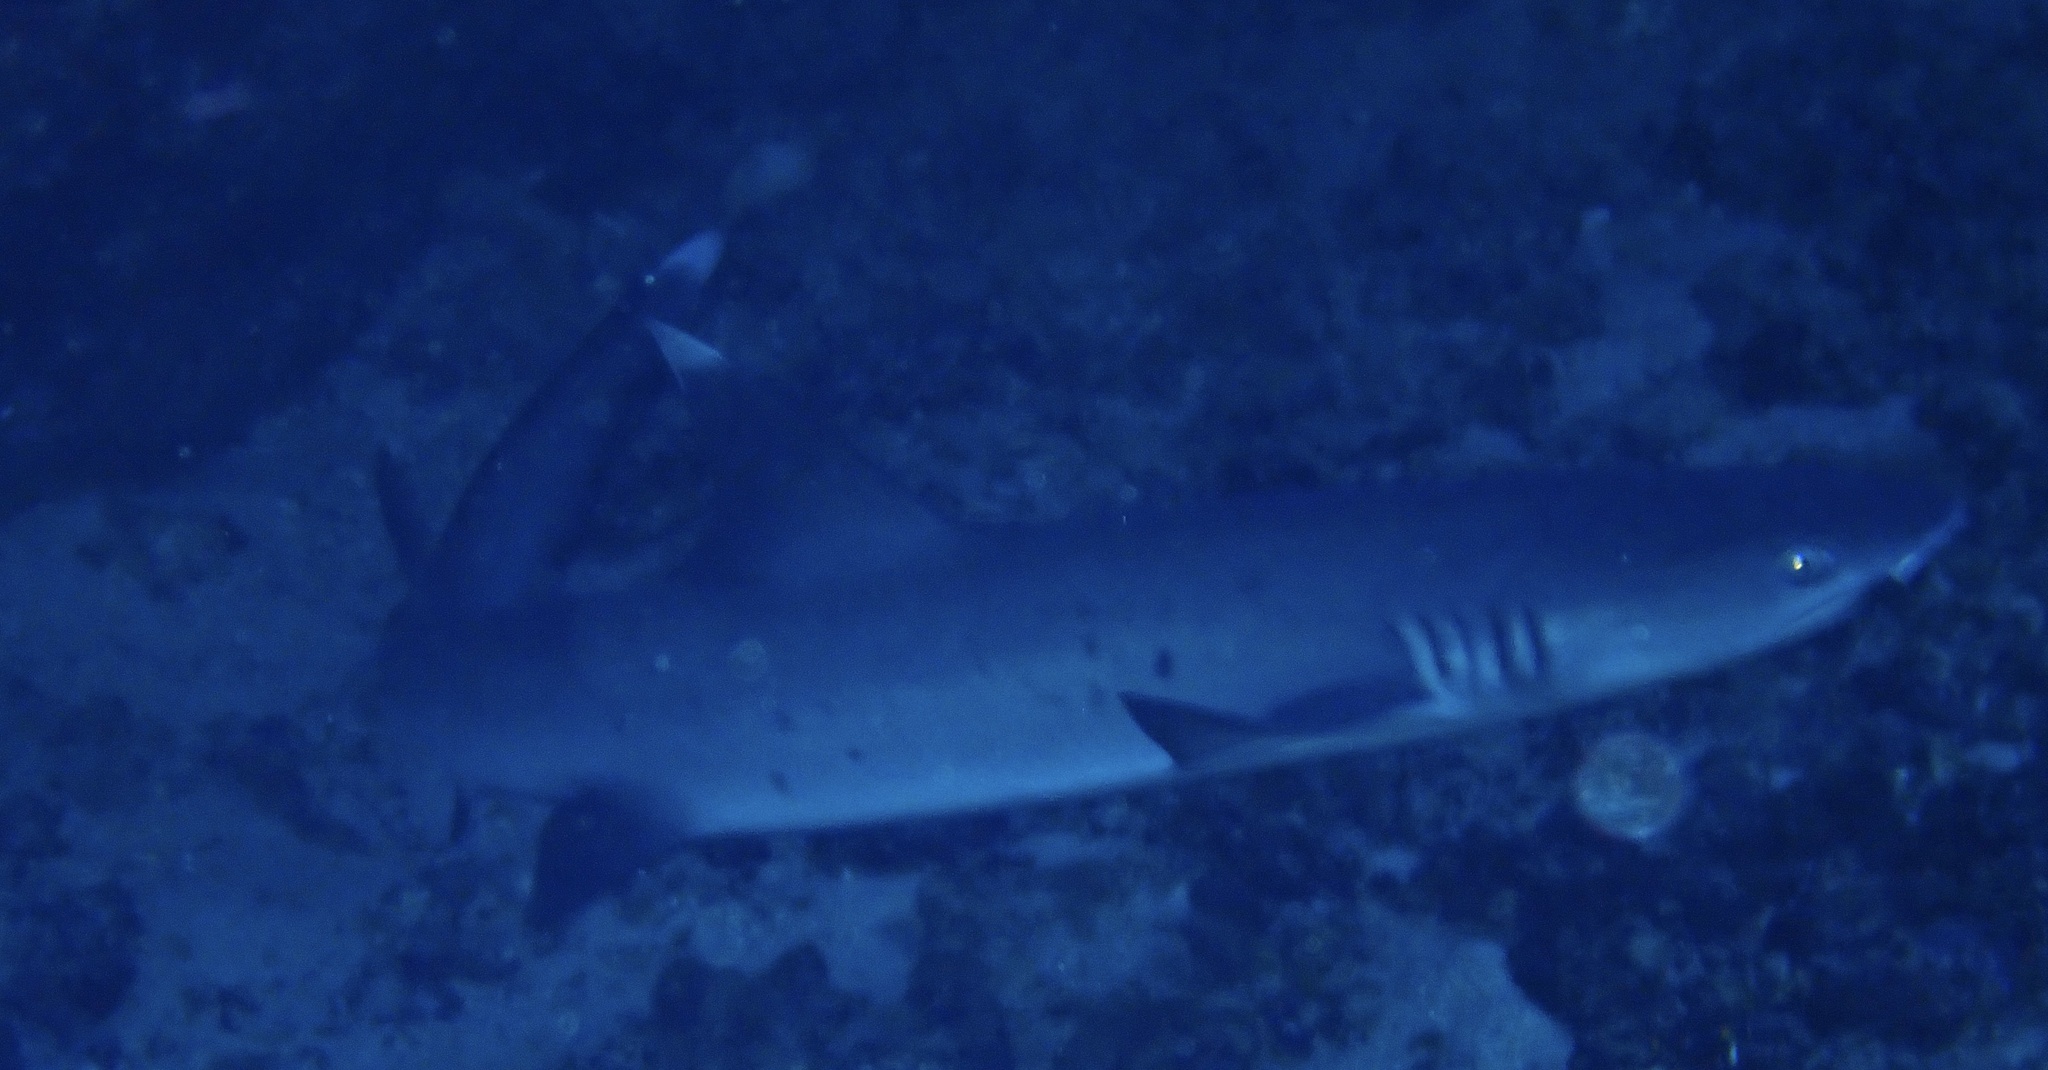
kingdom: Animalia
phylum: Chordata
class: Elasmobranchii
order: Carcharhiniformes
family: Carcharhinidae
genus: Triaenodon
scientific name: Triaenodon obesus
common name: Whitetip reef shark
